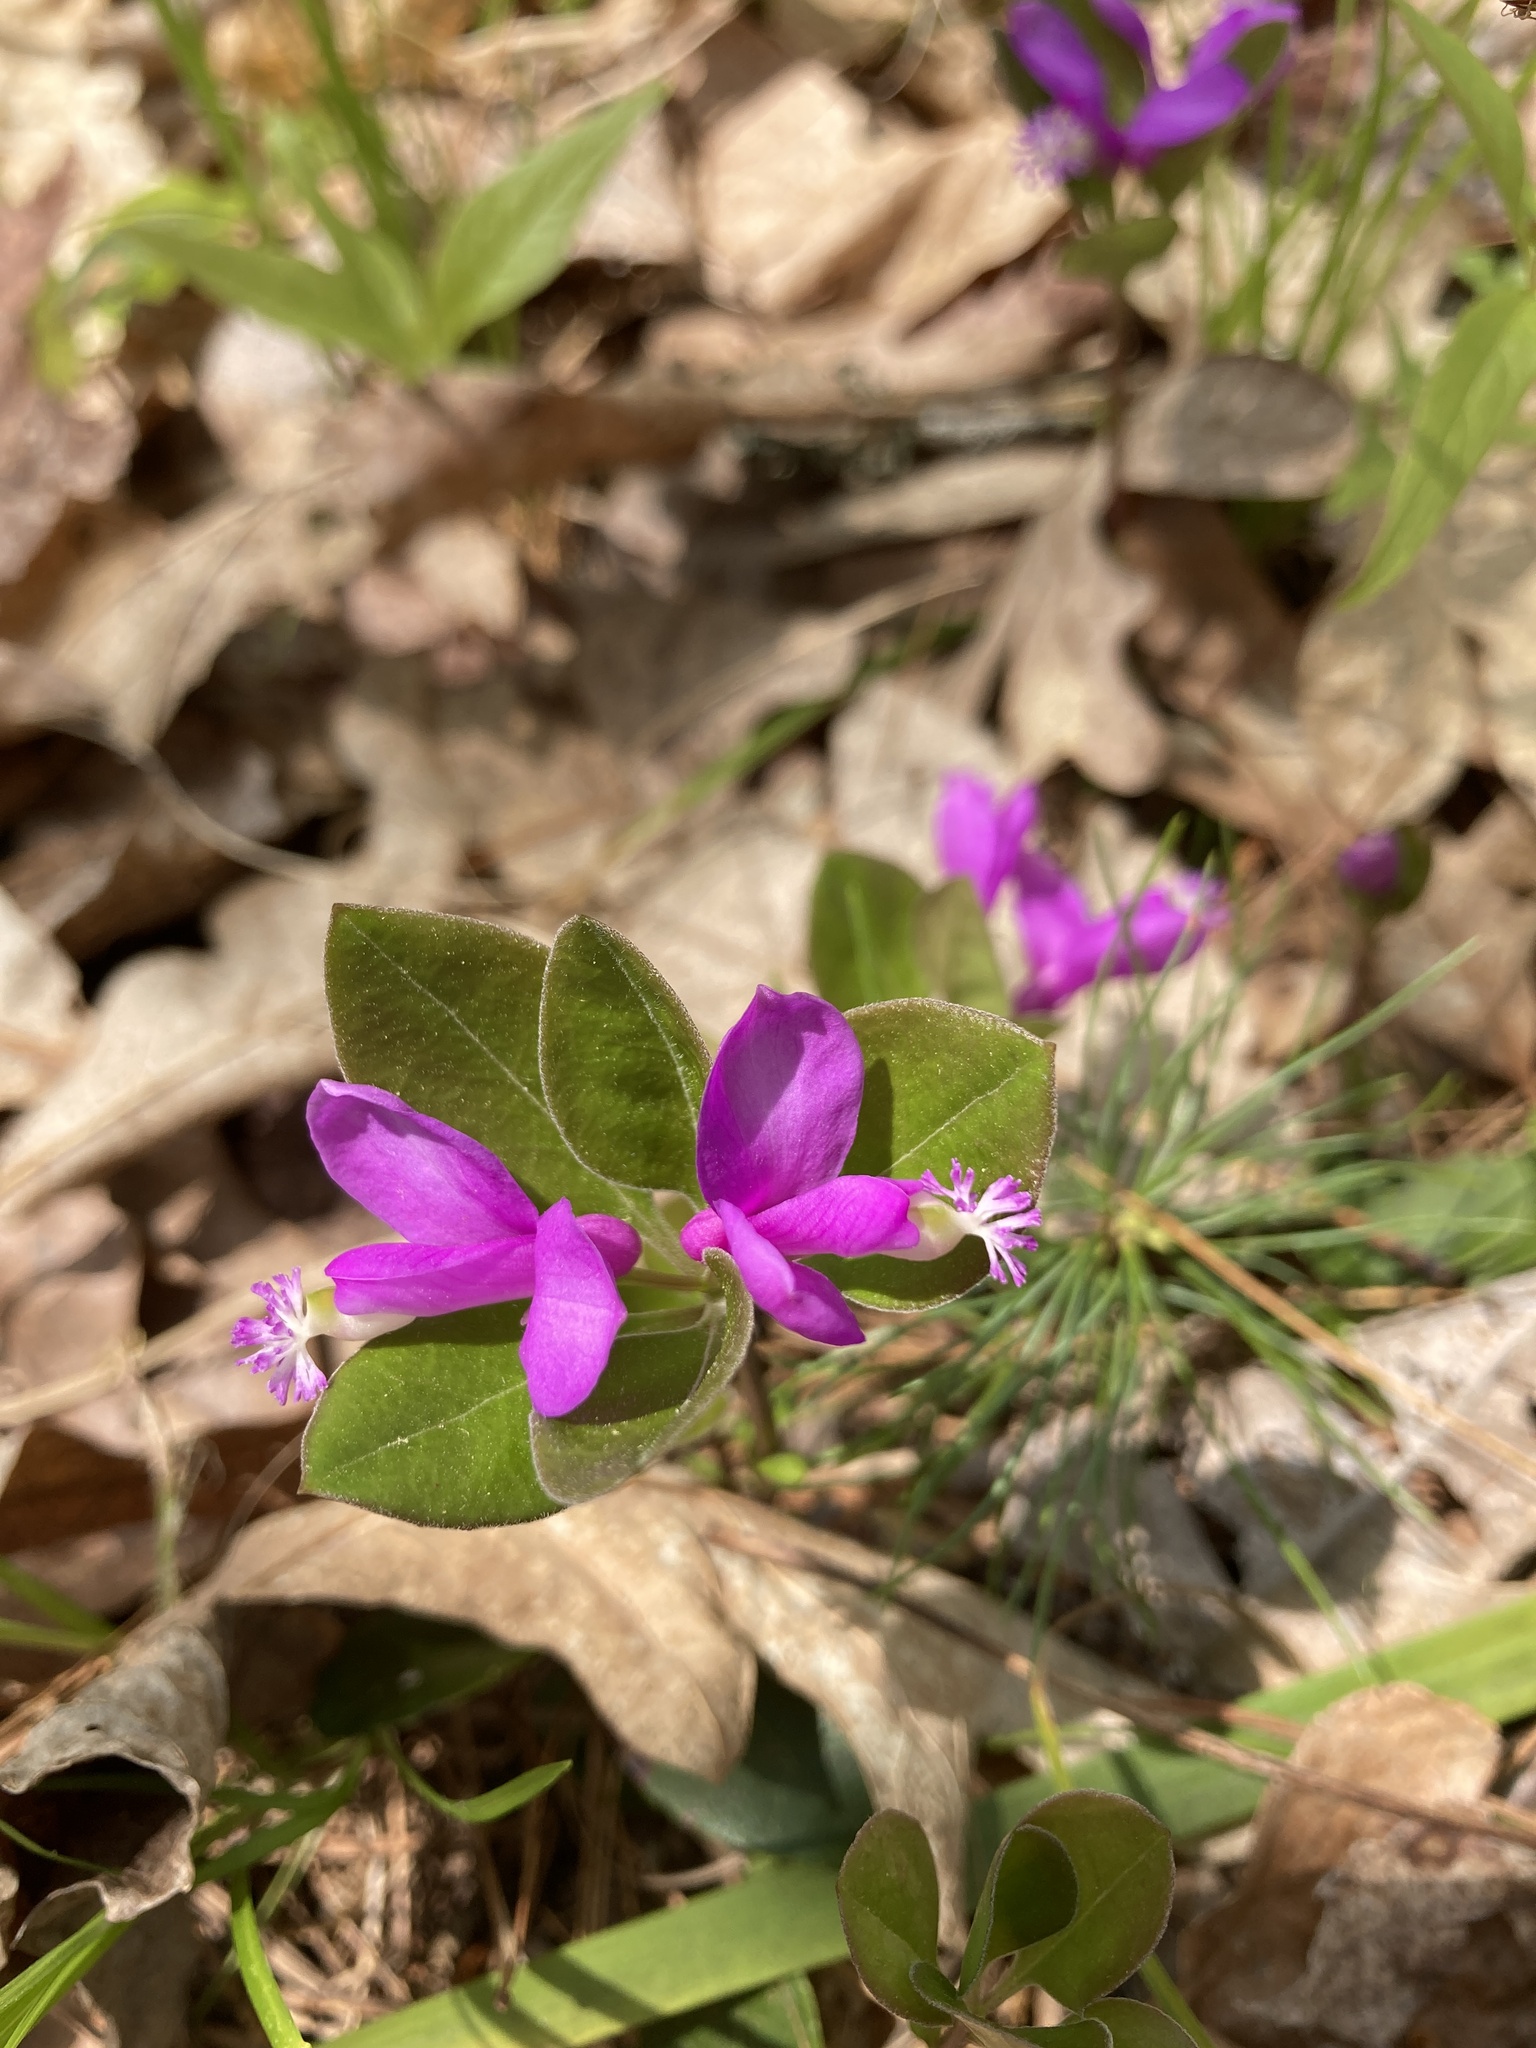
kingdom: Plantae
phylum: Tracheophyta
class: Magnoliopsida
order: Fabales
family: Polygalaceae
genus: Polygaloides
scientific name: Polygaloides paucifolia
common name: Bird-on-the-wing
